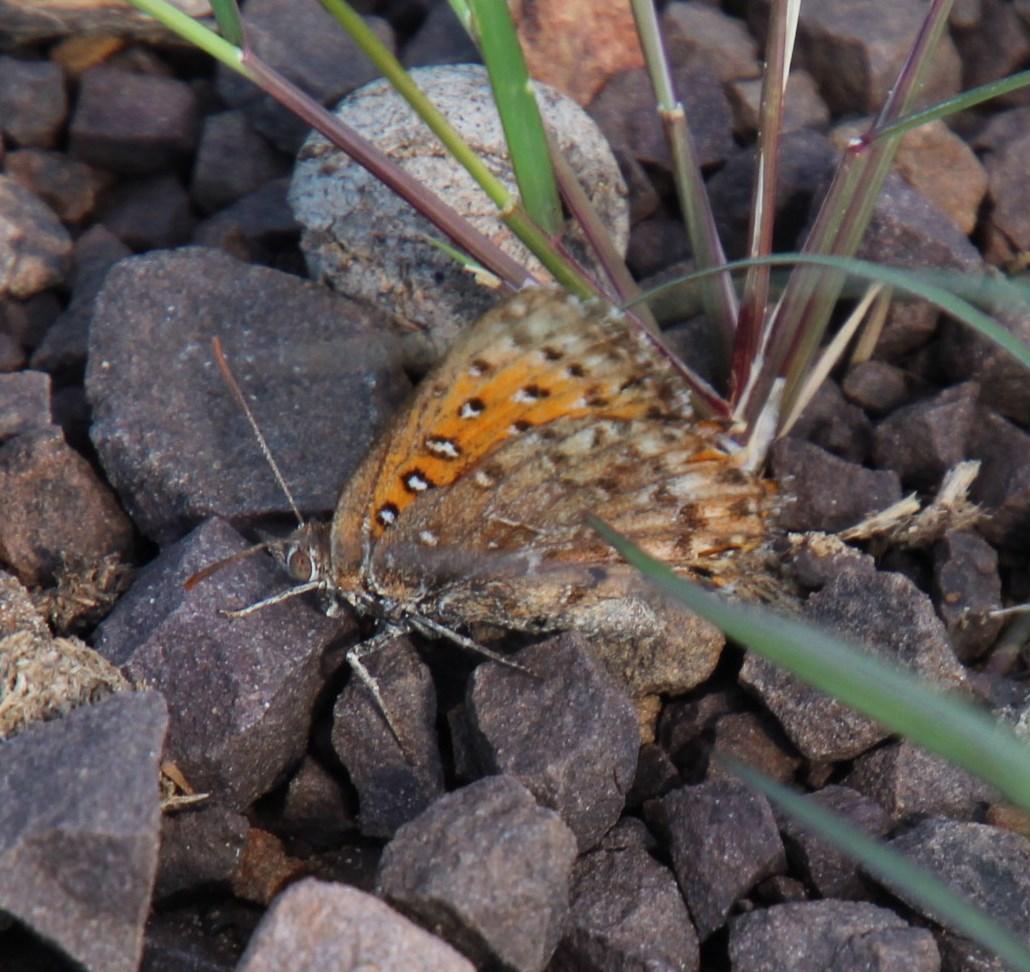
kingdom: Animalia
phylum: Arthropoda
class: Insecta
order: Lepidoptera
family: Lycaenidae
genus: Aloeides
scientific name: Aloeides damarensis
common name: Damara russet
